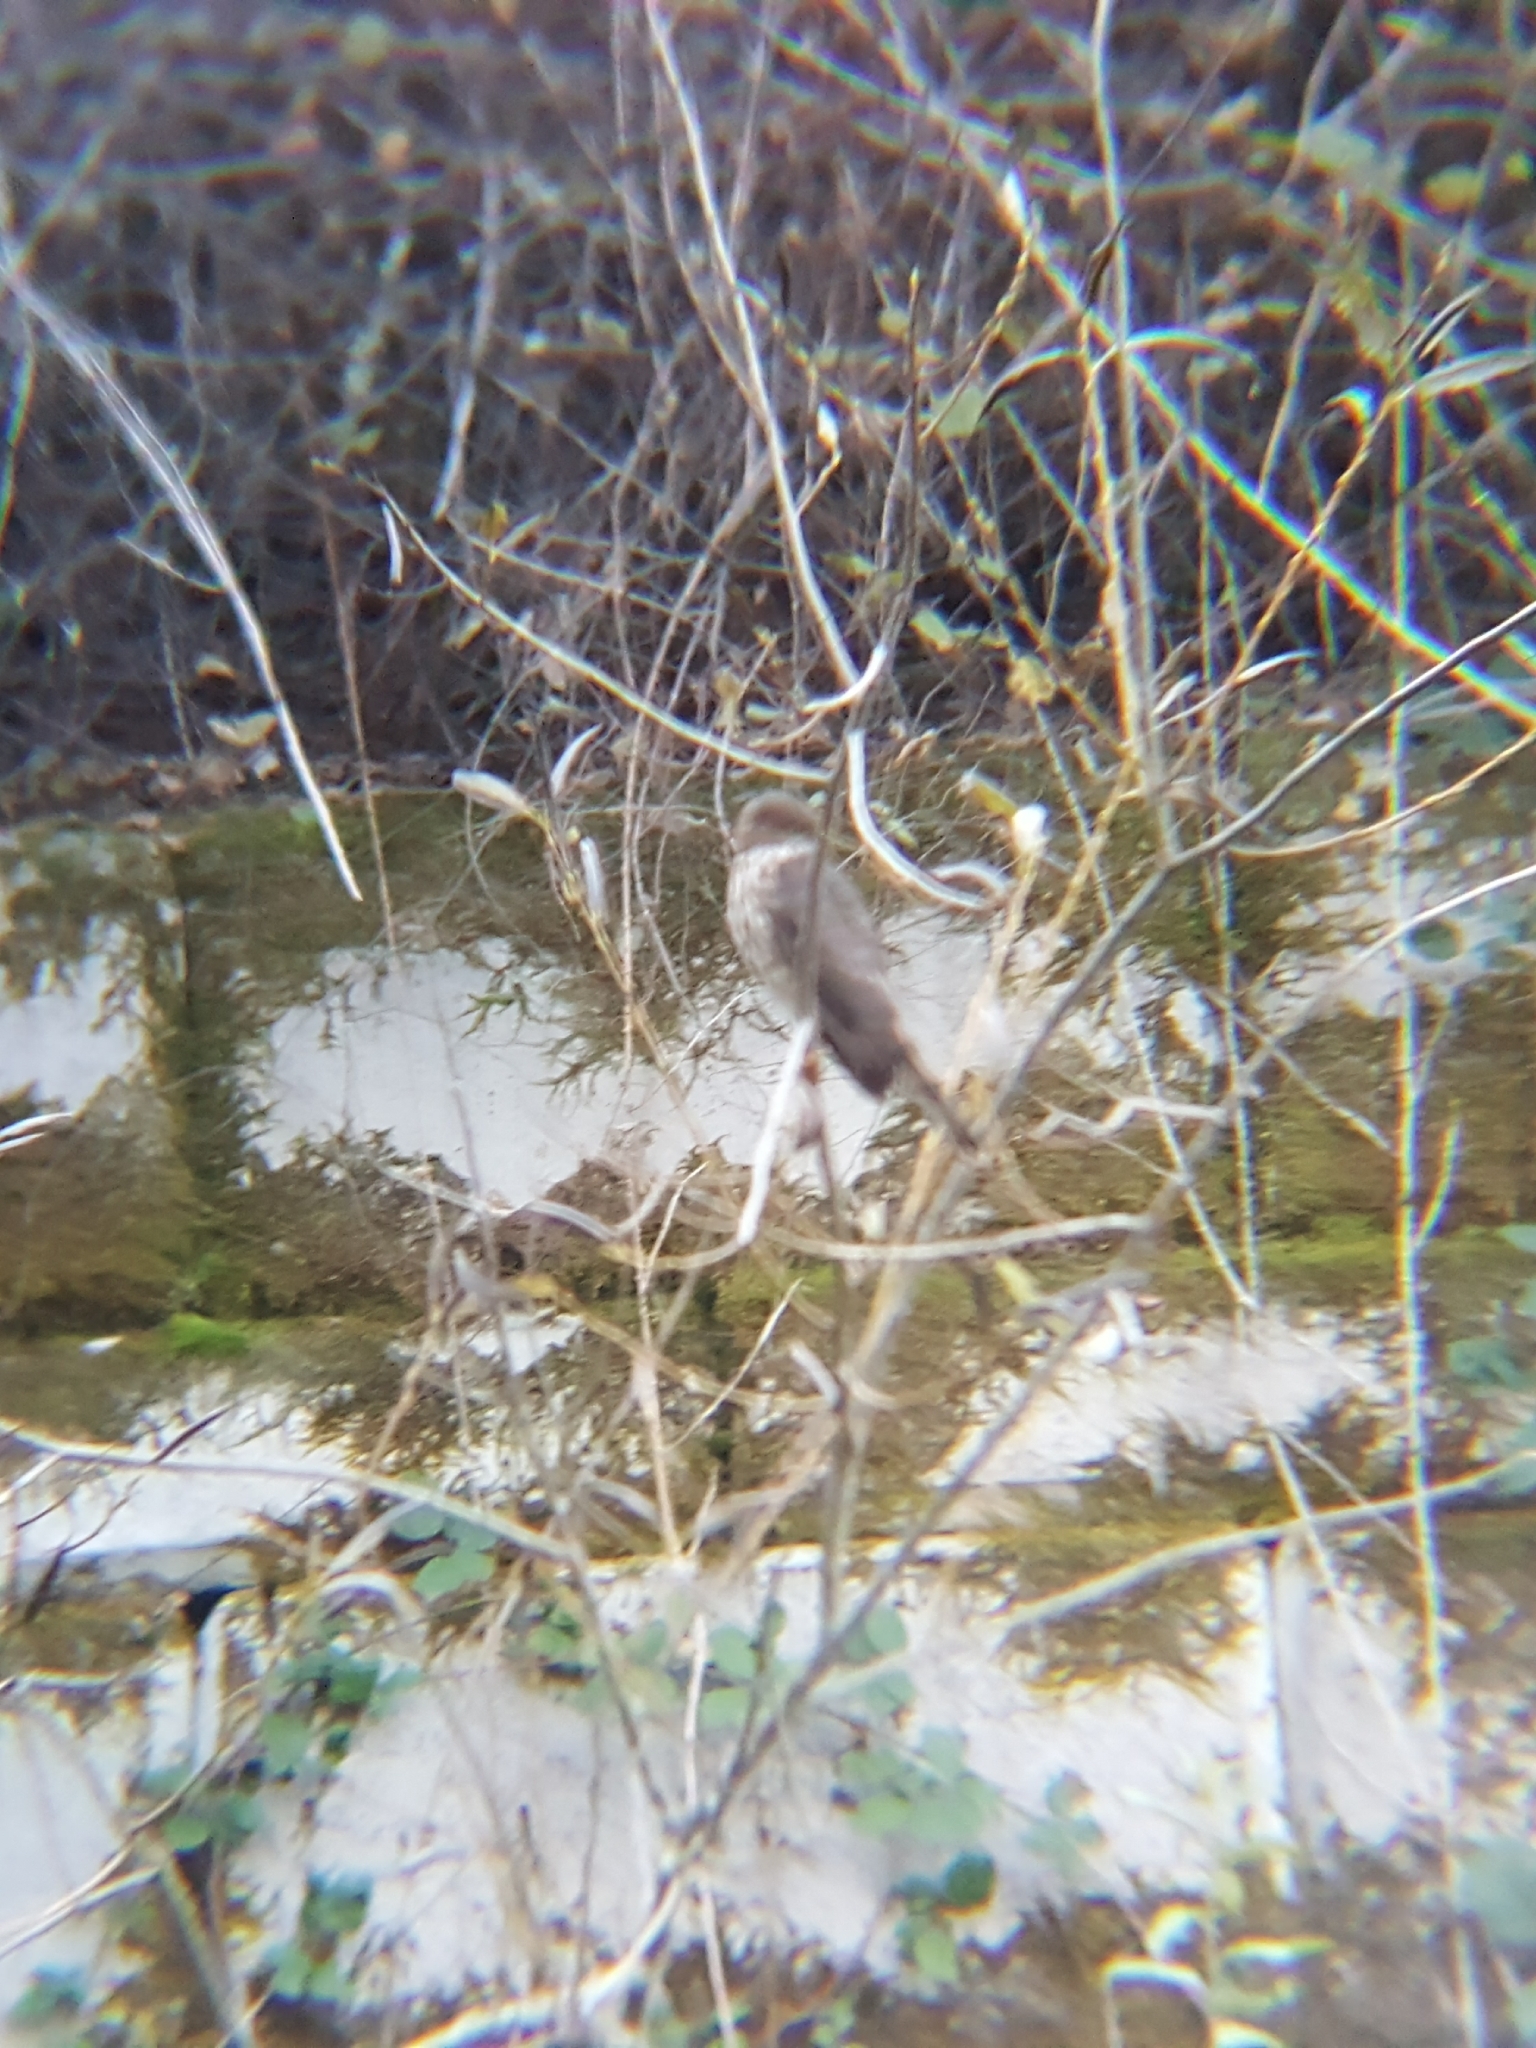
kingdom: Animalia
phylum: Chordata
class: Aves
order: Accipitriformes
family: Accipitridae
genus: Accipiter
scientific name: Accipiter striatus
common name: Sharp-shinned hawk
